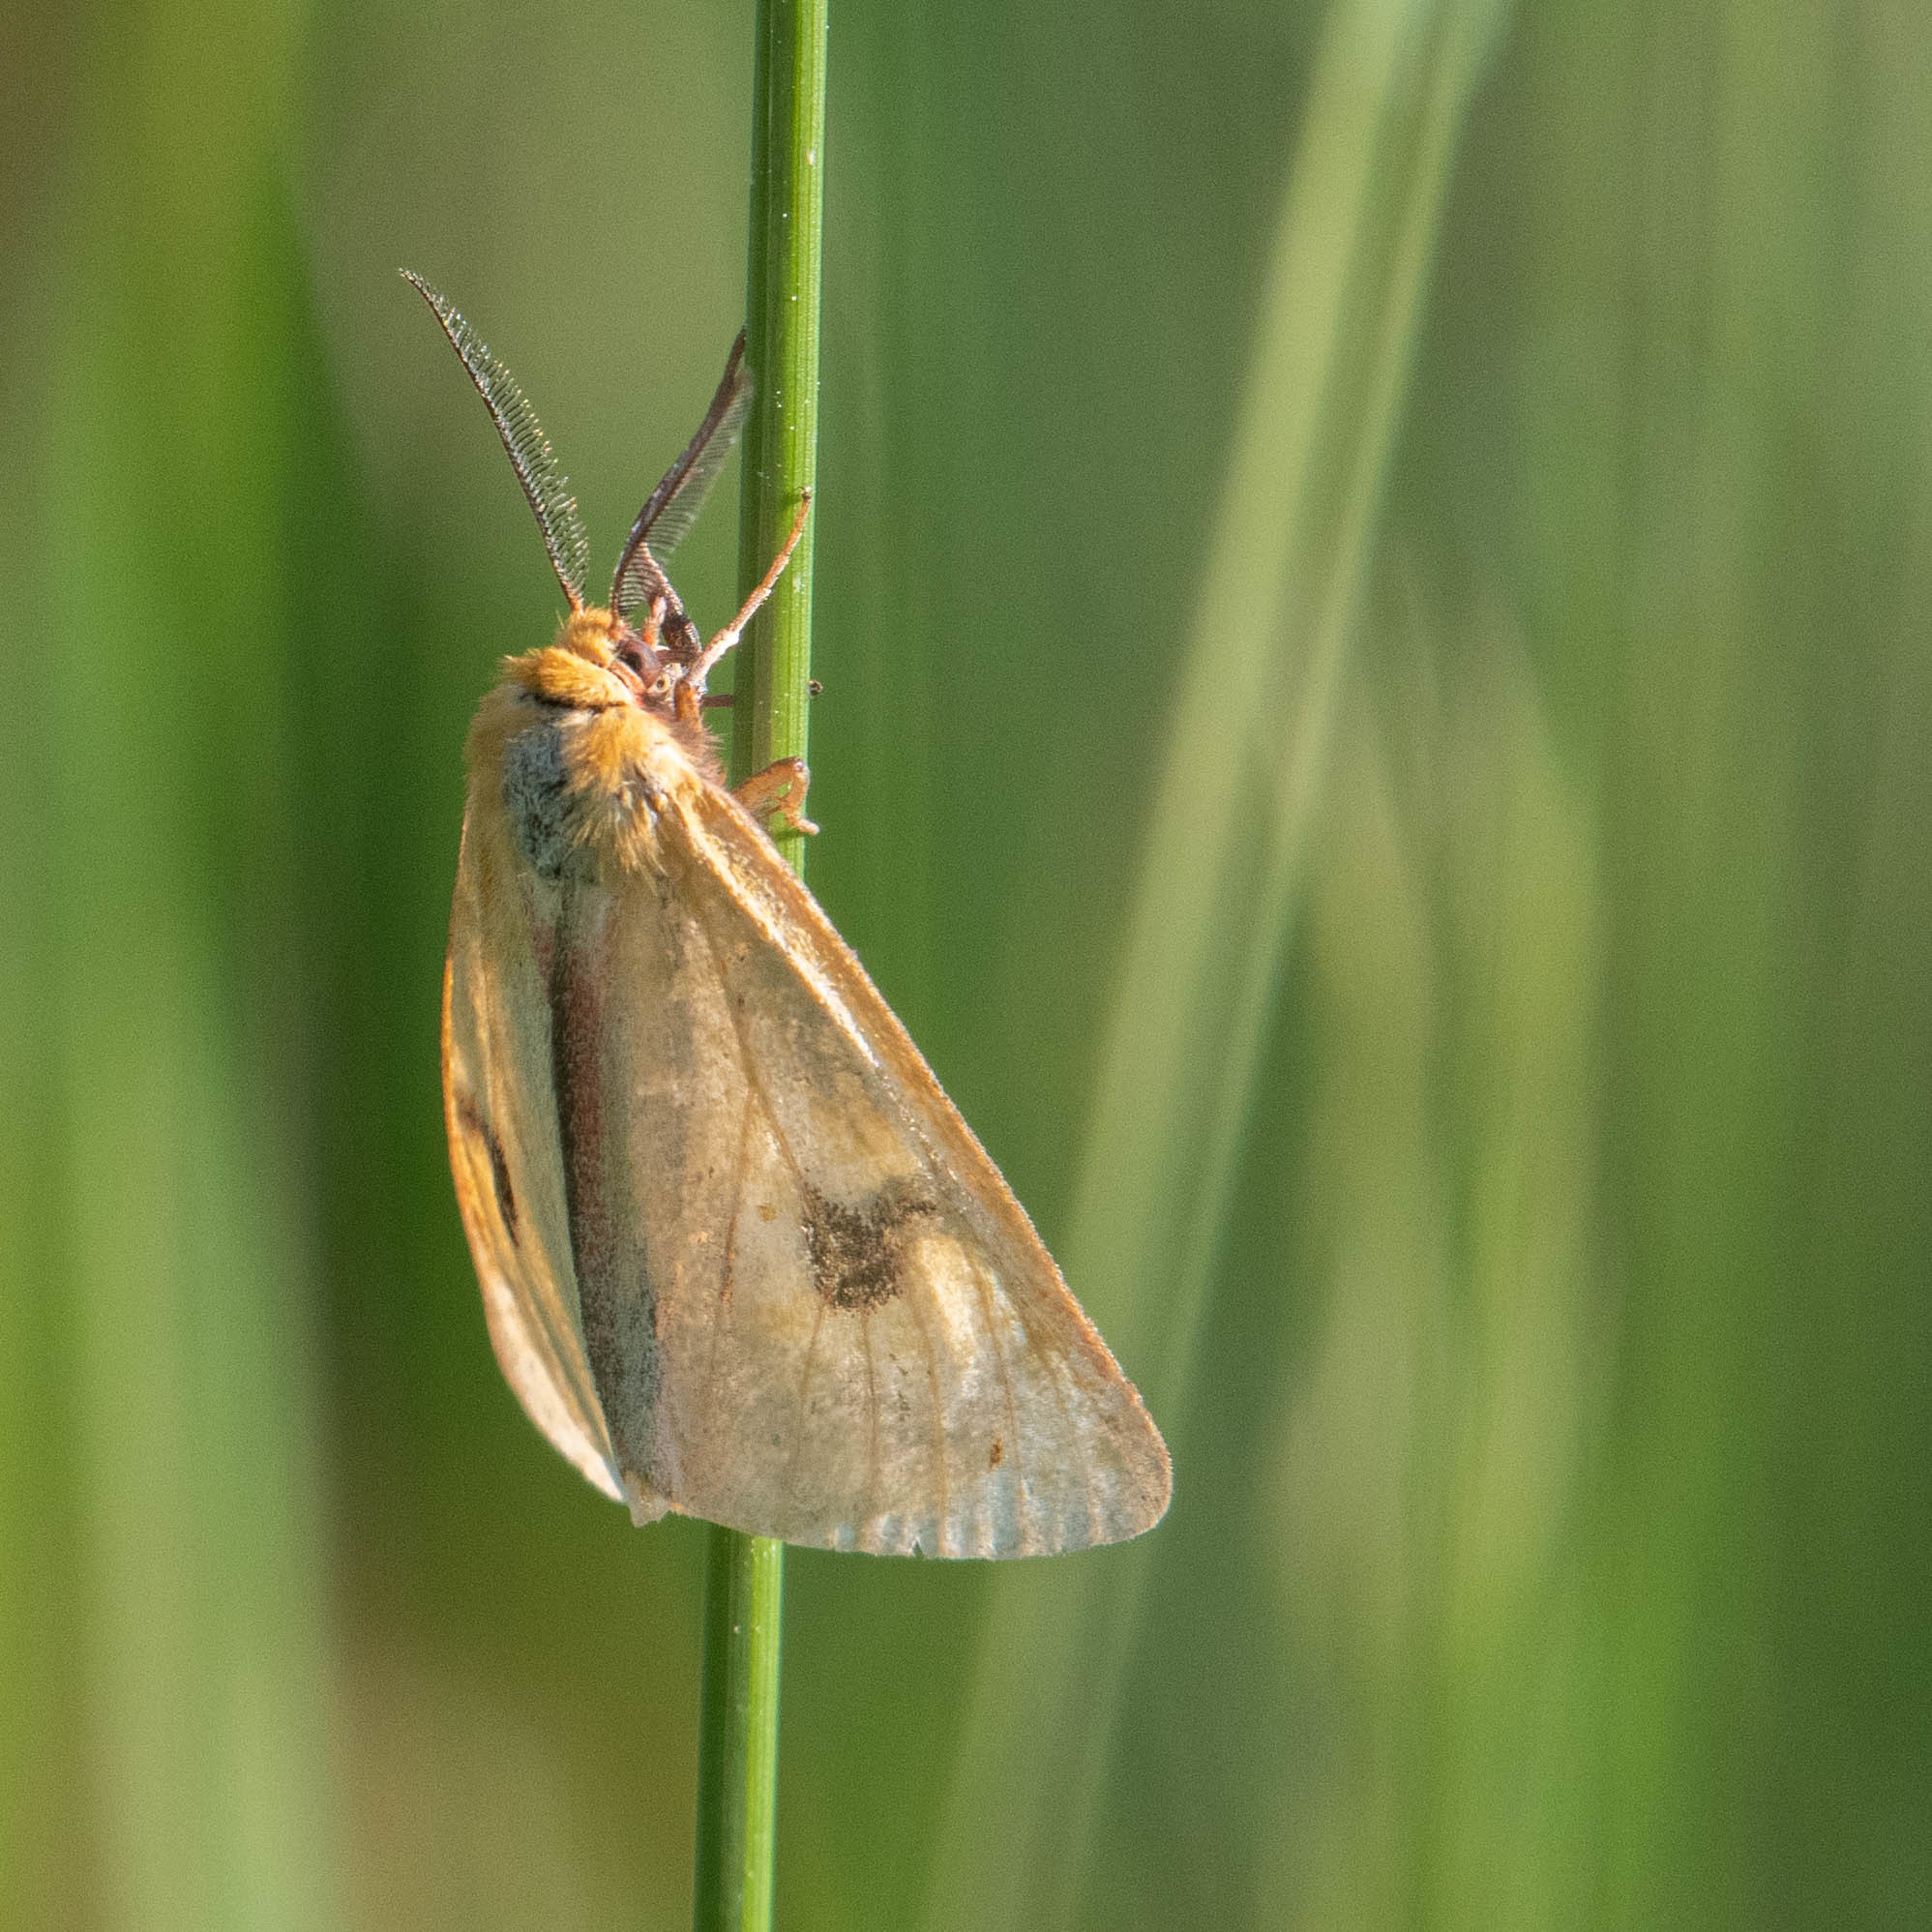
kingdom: Animalia
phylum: Arthropoda
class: Insecta
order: Lepidoptera
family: Erebidae
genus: Diacrisia
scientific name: Diacrisia sannio
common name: Clouded buff
